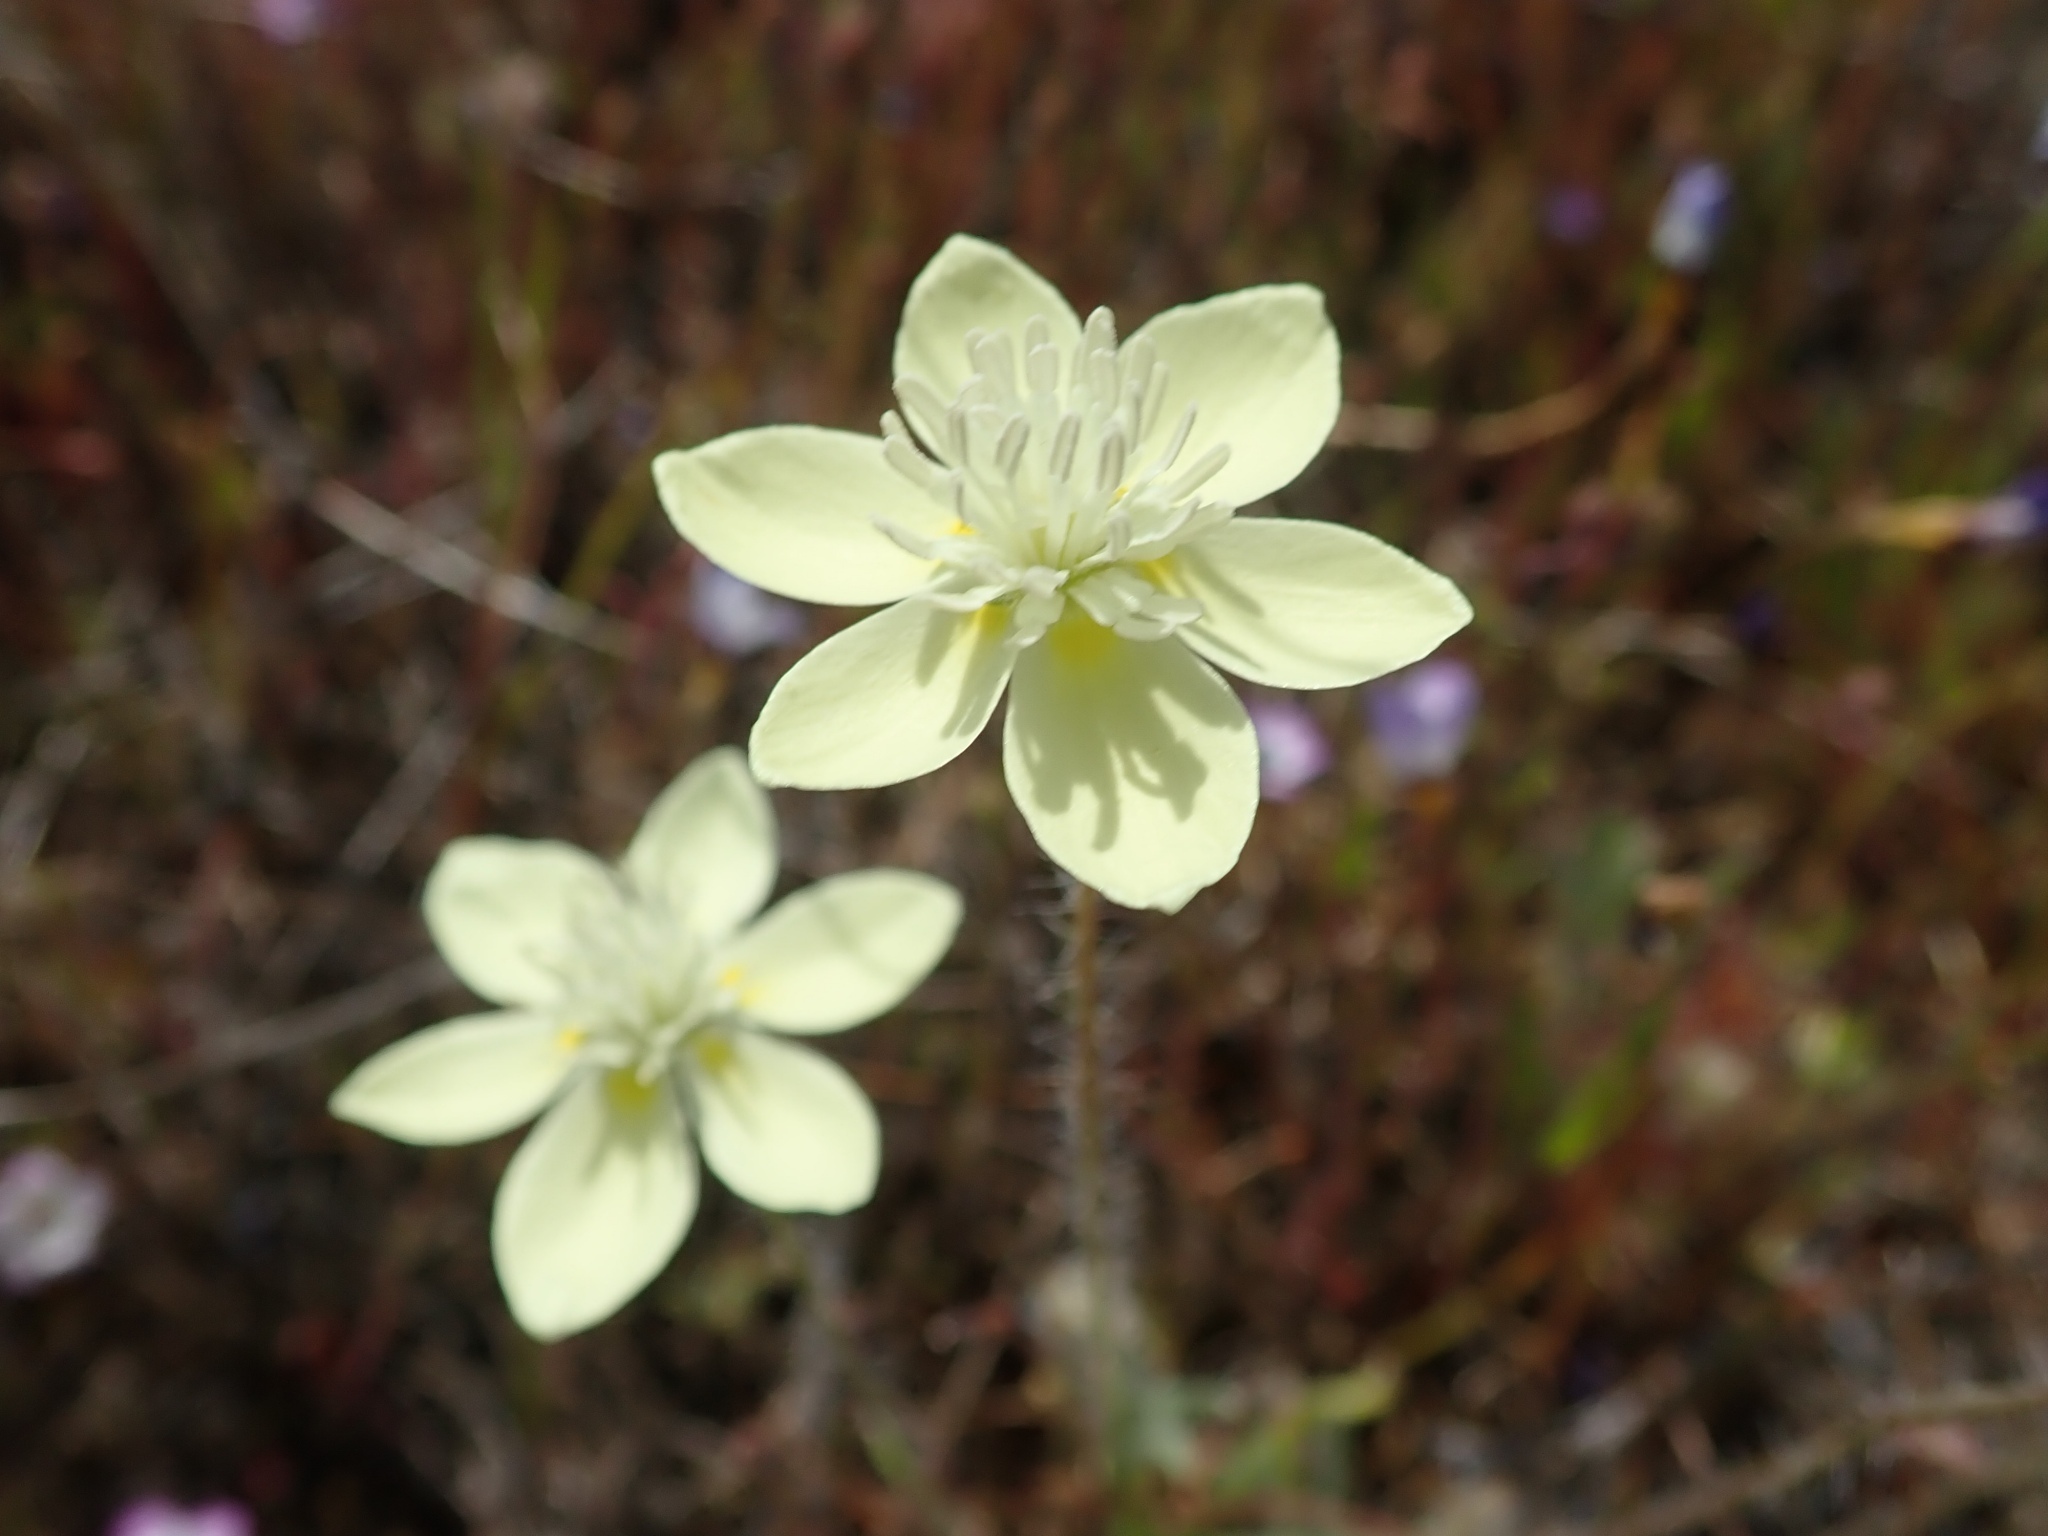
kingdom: Plantae
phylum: Tracheophyta
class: Magnoliopsida
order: Ranunculales
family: Papaveraceae
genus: Platystemon
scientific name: Platystemon californicus
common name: Cream-cups
